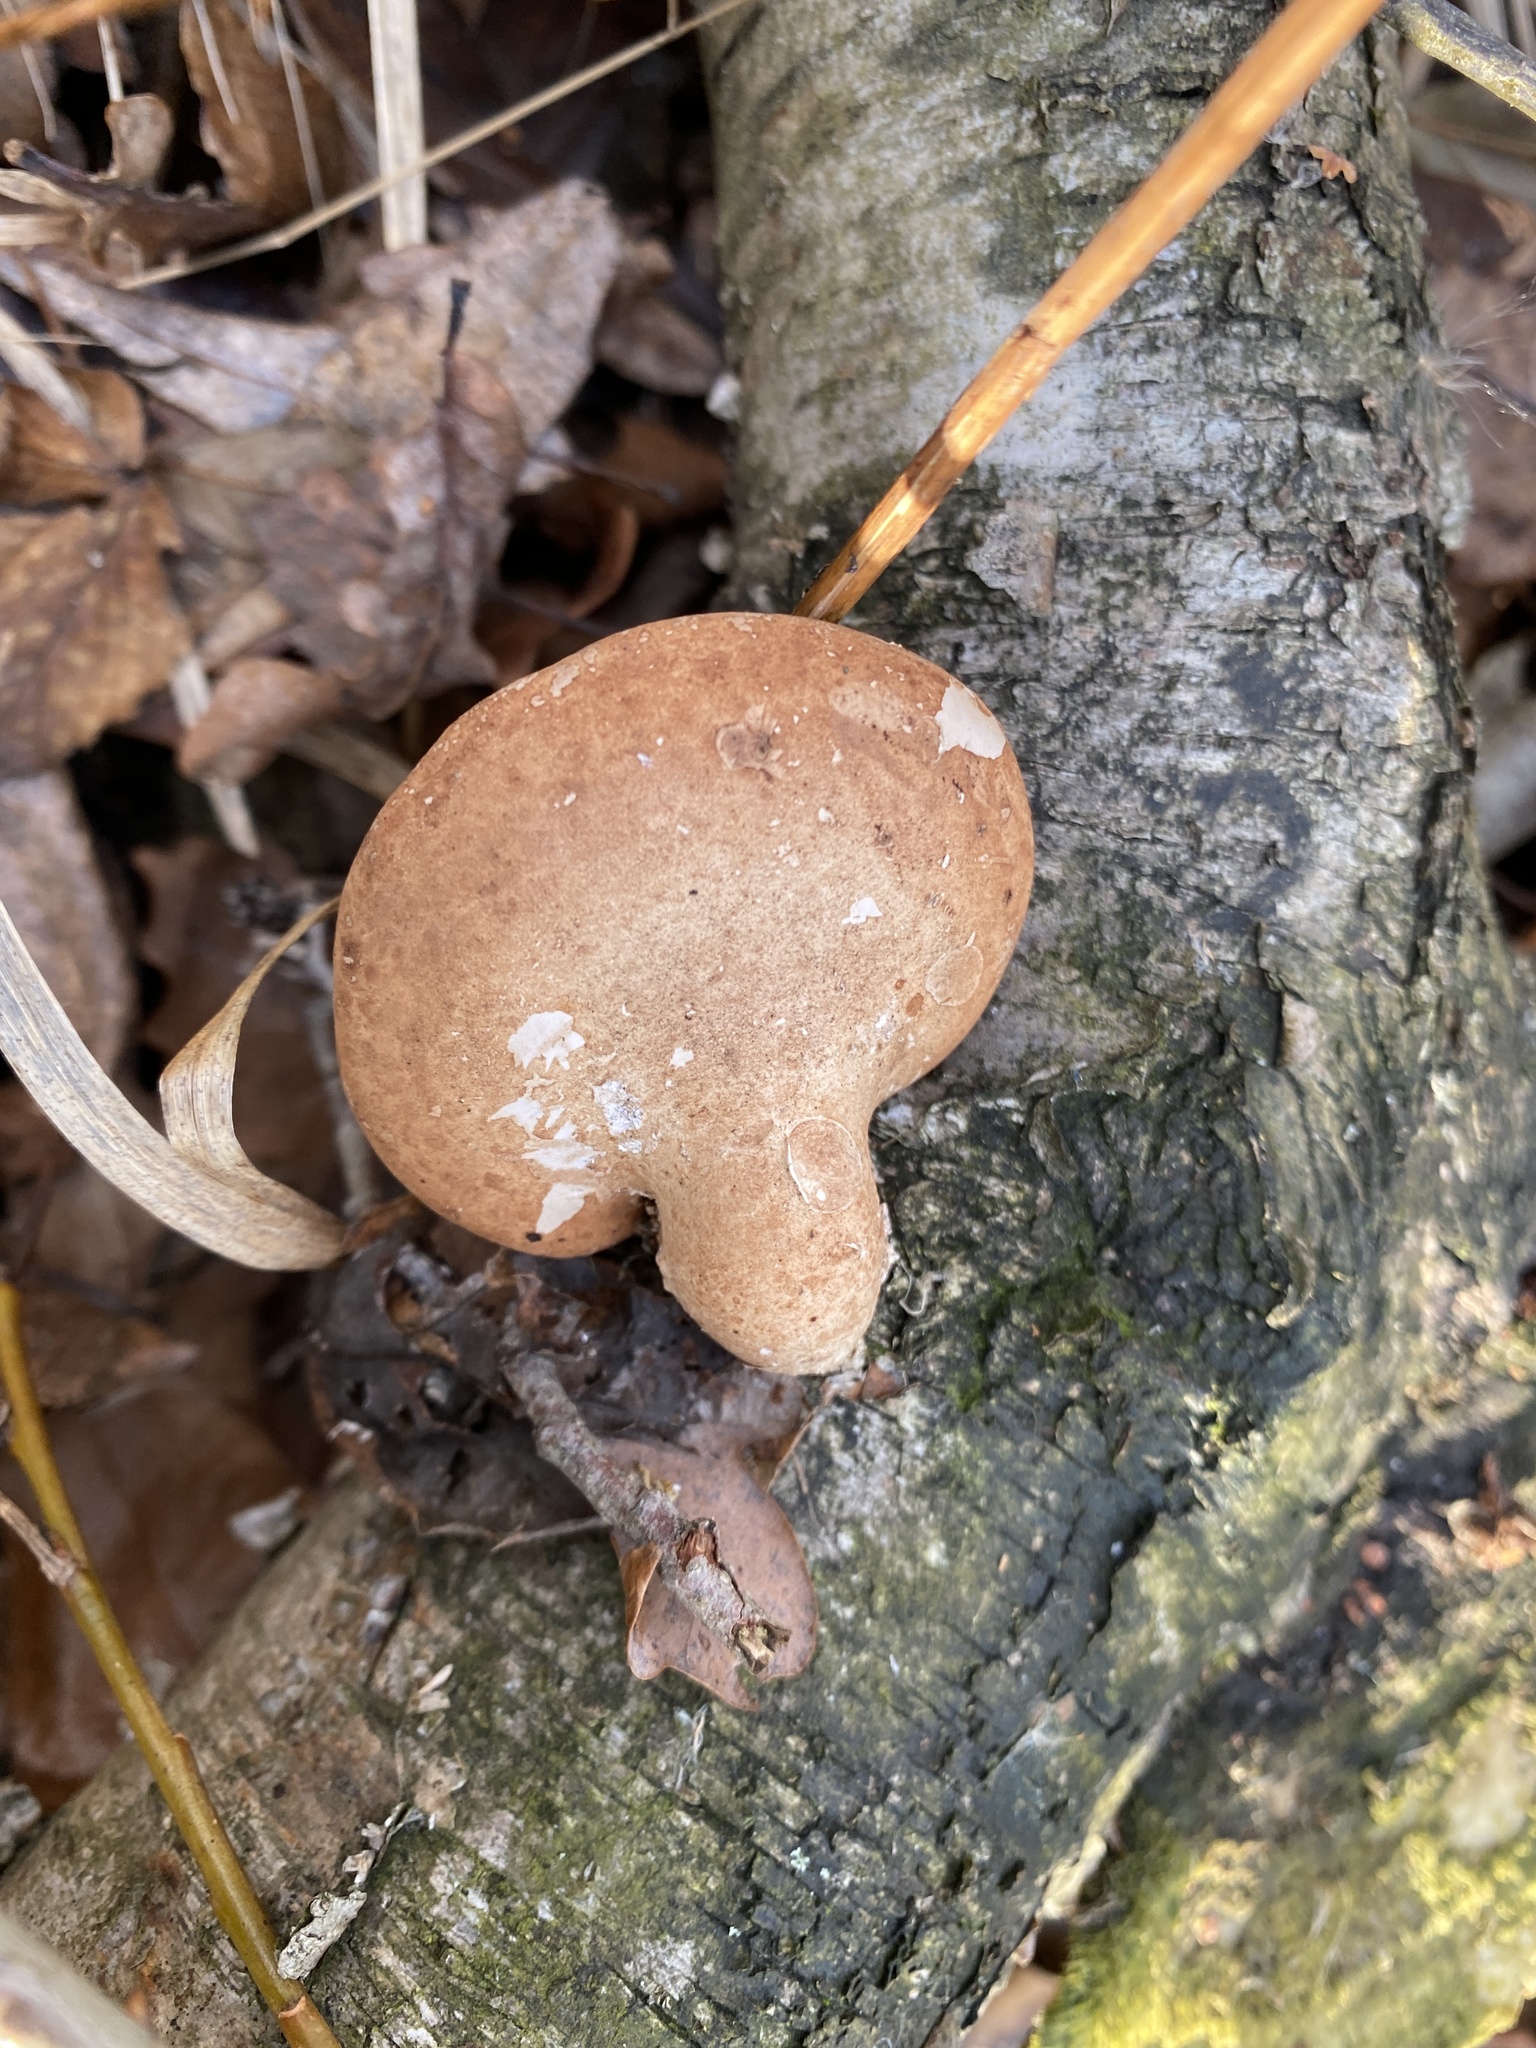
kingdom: Fungi
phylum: Basidiomycota
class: Agaricomycetes
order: Polyporales
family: Fomitopsidaceae
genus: Fomitopsis
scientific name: Fomitopsis betulina
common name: Birch polypore
